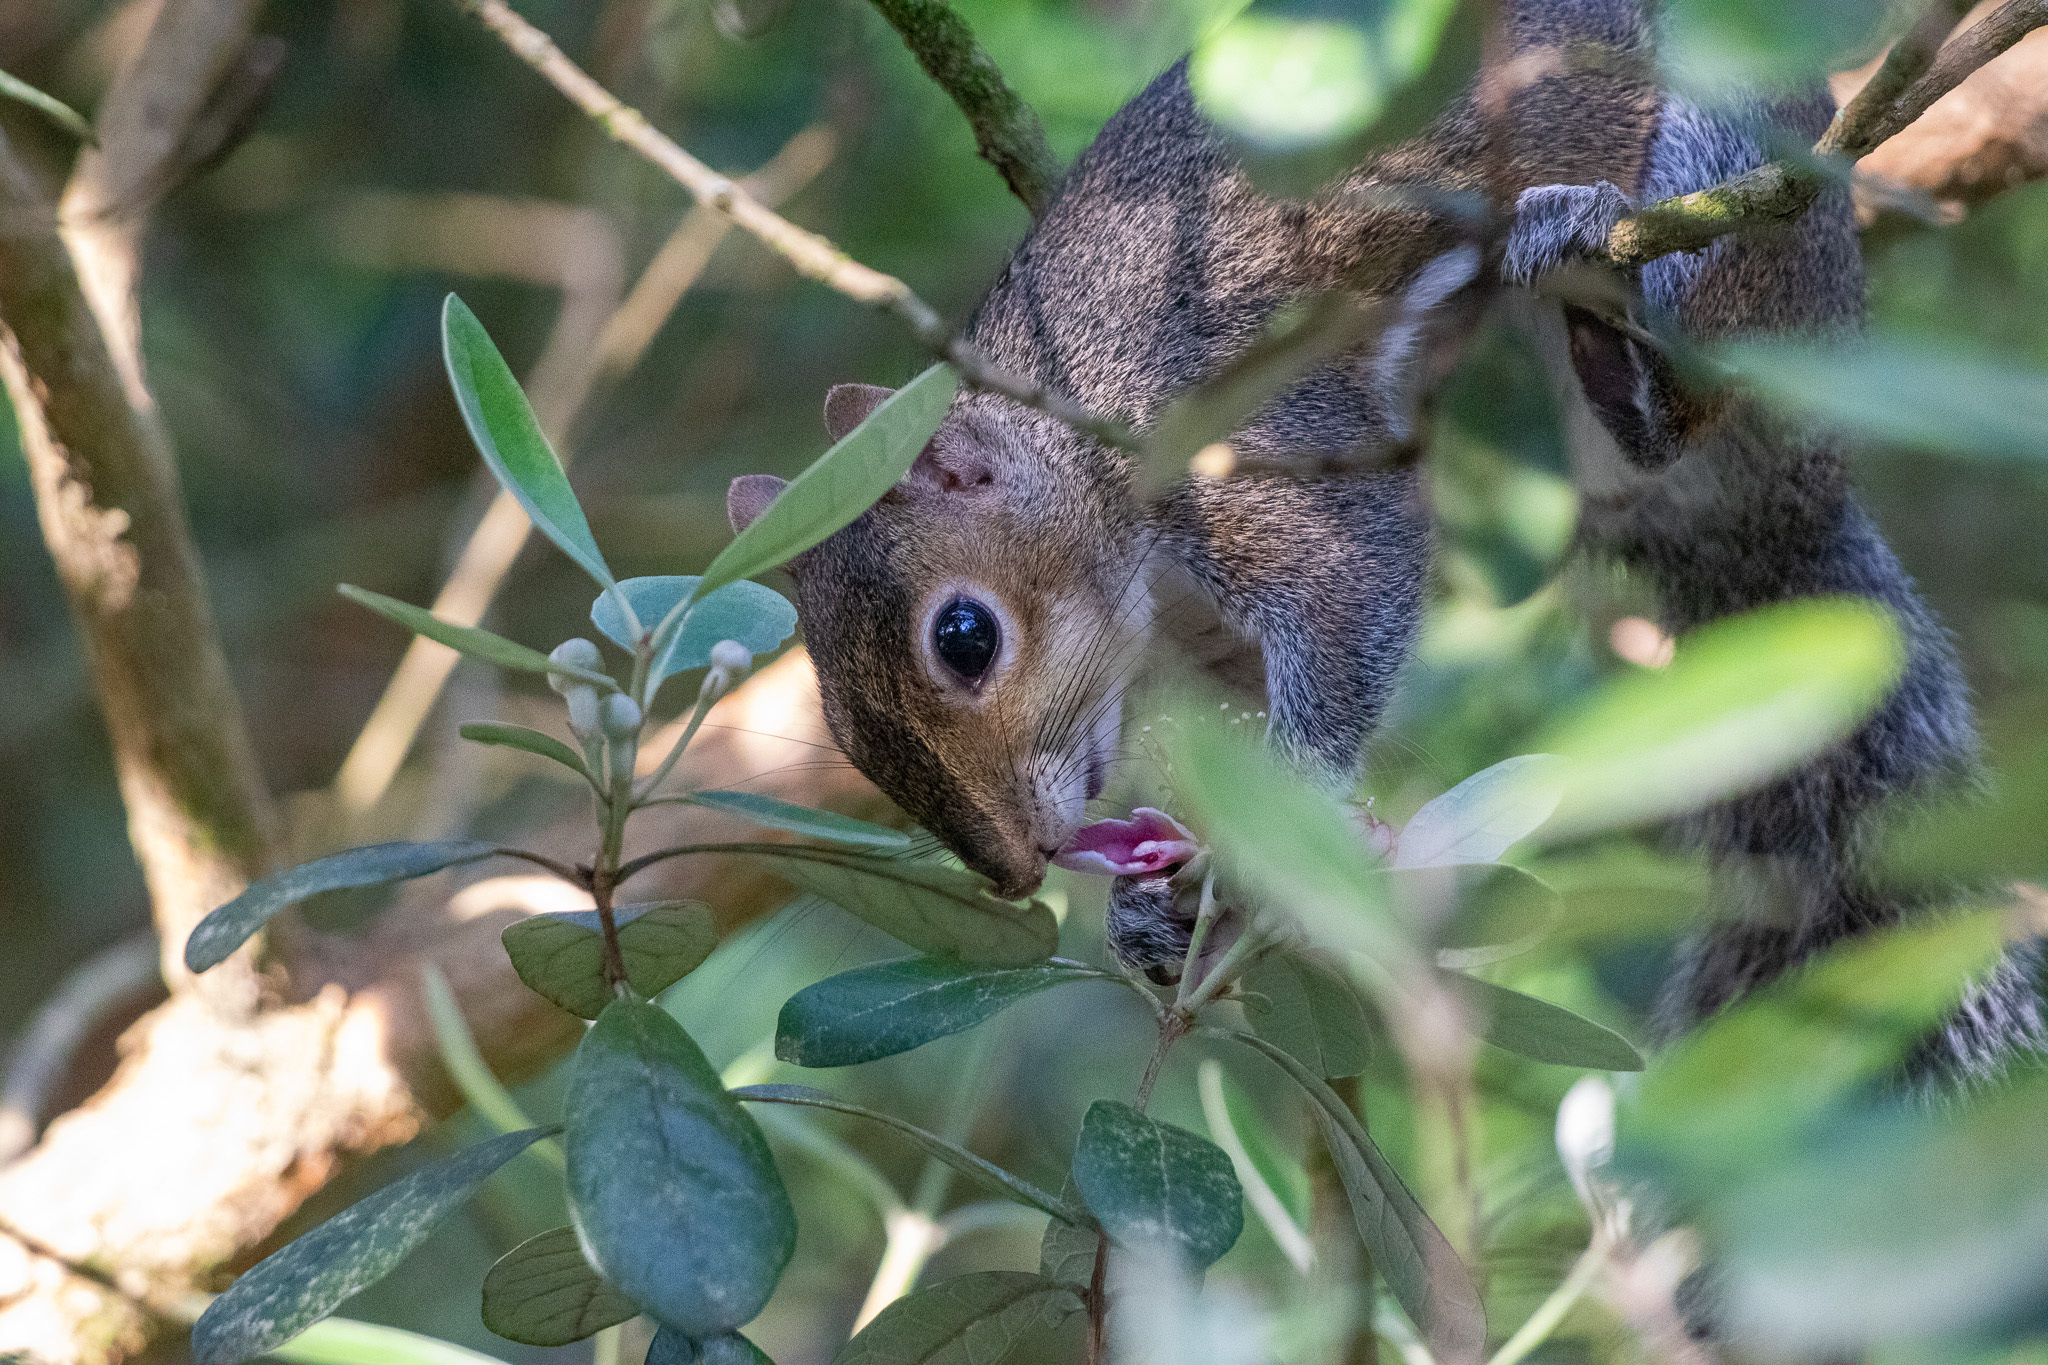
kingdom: Animalia
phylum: Chordata
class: Mammalia
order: Rodentia
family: Sciuridae
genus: Sciurus
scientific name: Sciurus carolinensis
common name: Eastern gray squirrel
